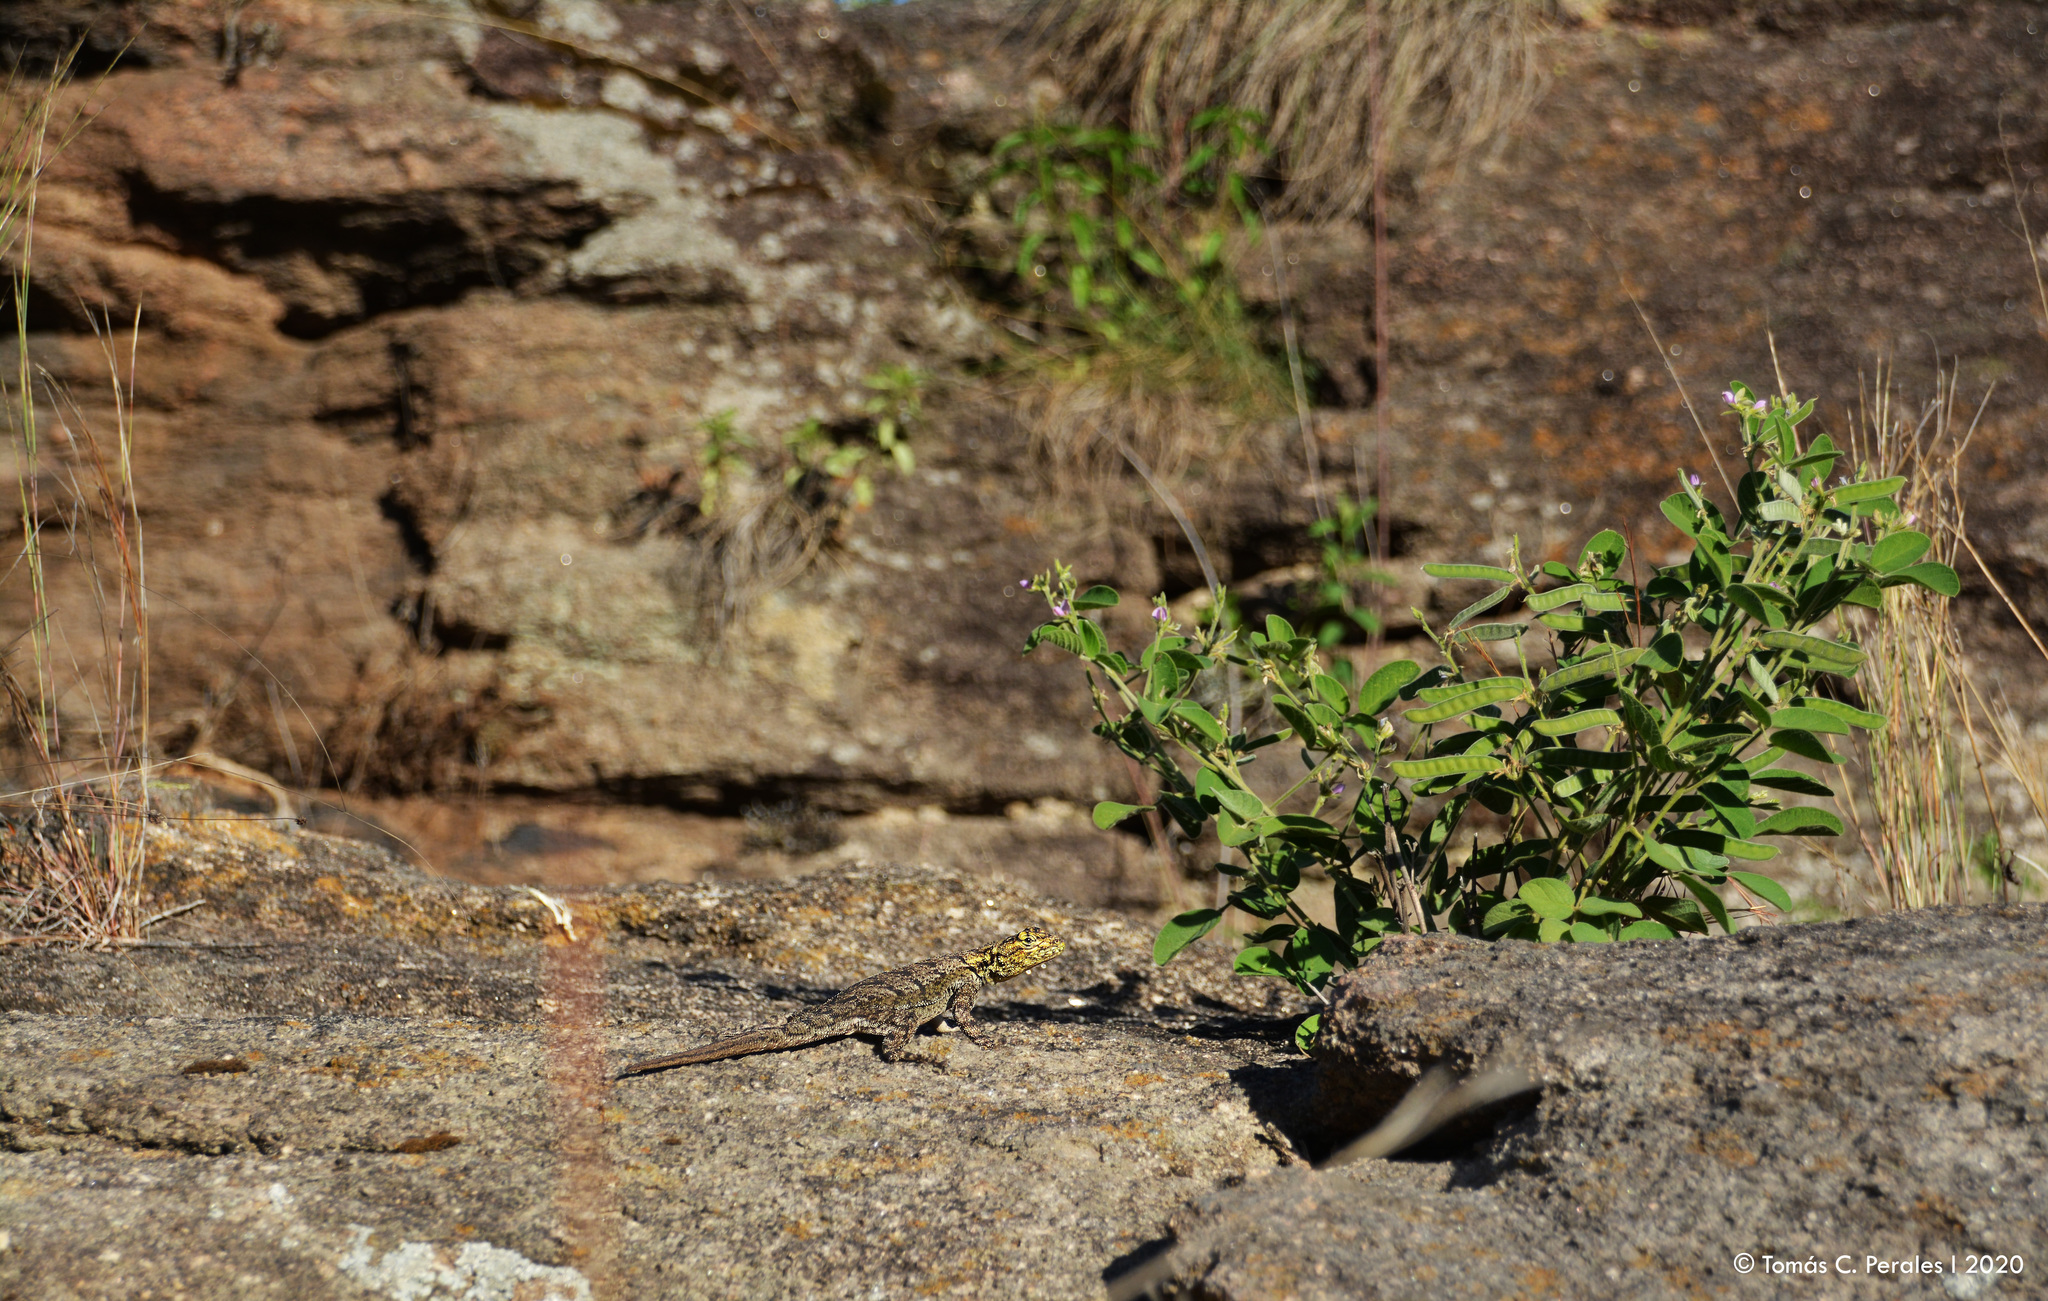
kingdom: Animalia
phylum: Chordata
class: Squamata
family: Tropiduridae
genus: Tropidurus
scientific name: Tropidurus spinulosus
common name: Spiny lava lizard
